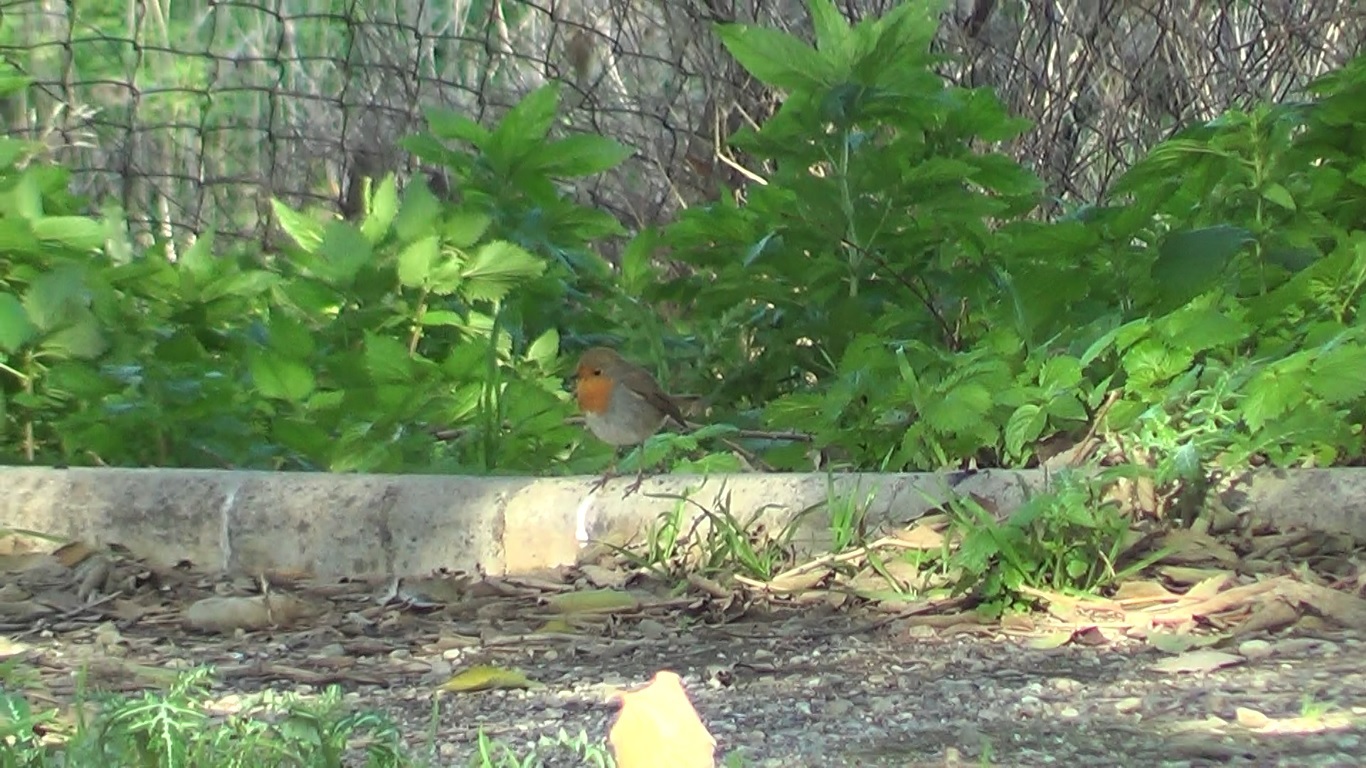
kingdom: Animalia
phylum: Chordata
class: Aves
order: Passeriformes
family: Muscicapidae
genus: Erithacus
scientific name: Erithacus rubecula
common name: European robin
